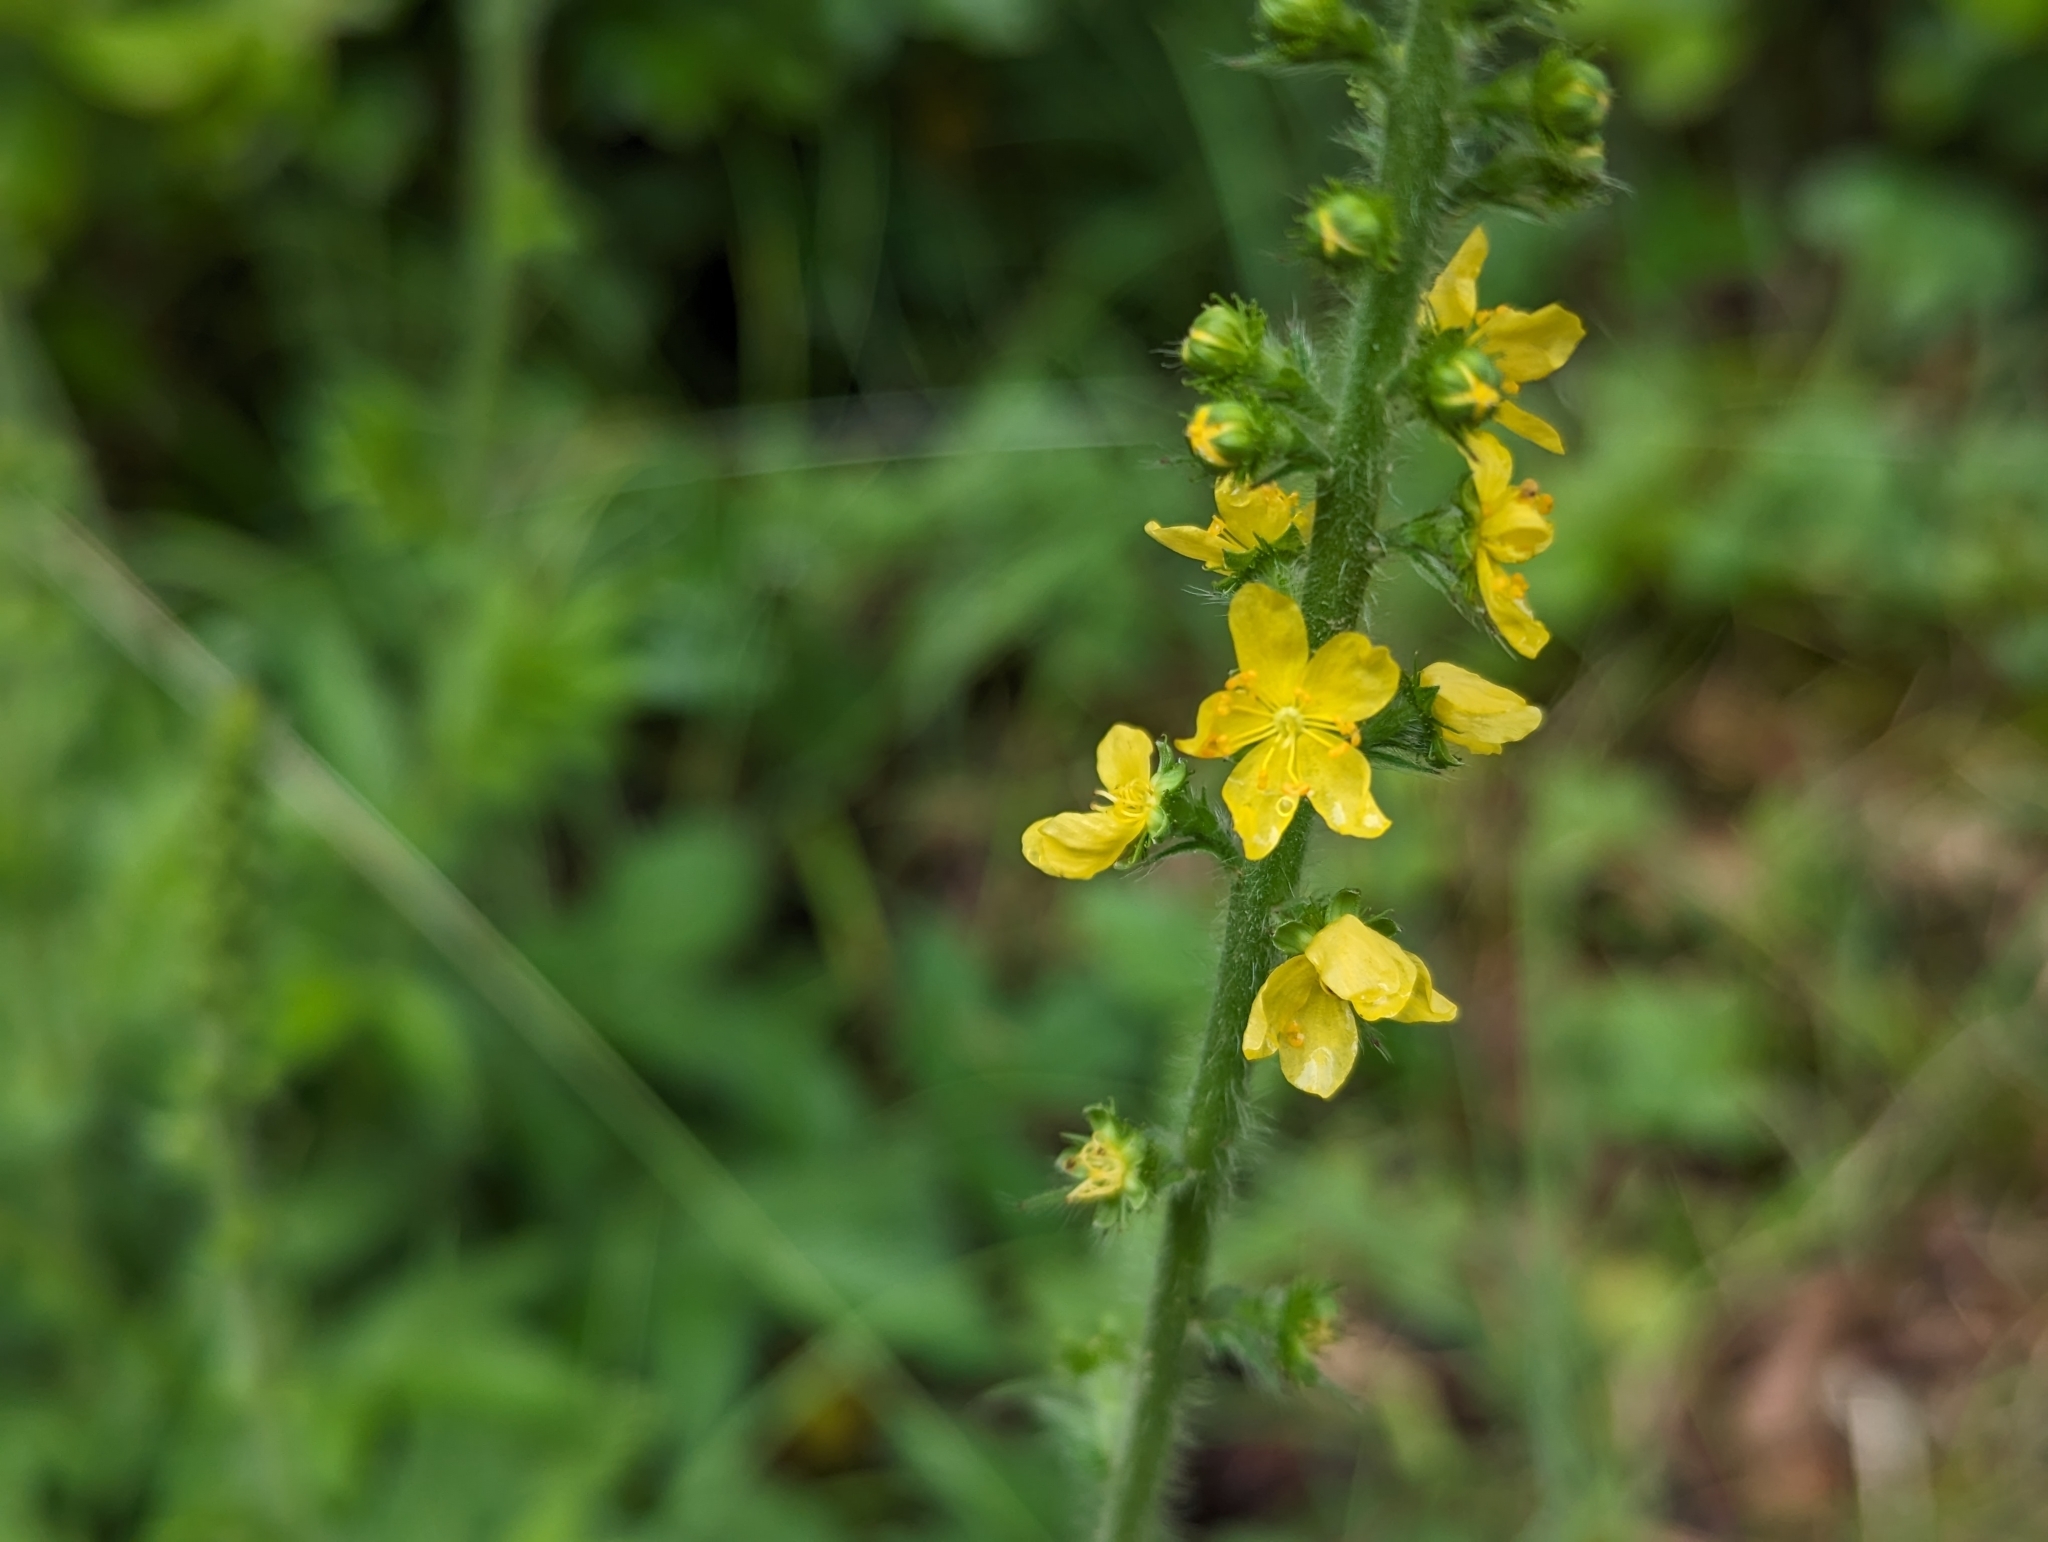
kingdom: Plantae
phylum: Tracheophyta
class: Magnoliopsida
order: Rosales
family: Rosaceae
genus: Agrimonia
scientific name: Agrimonia eupatoria
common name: Agrimony
